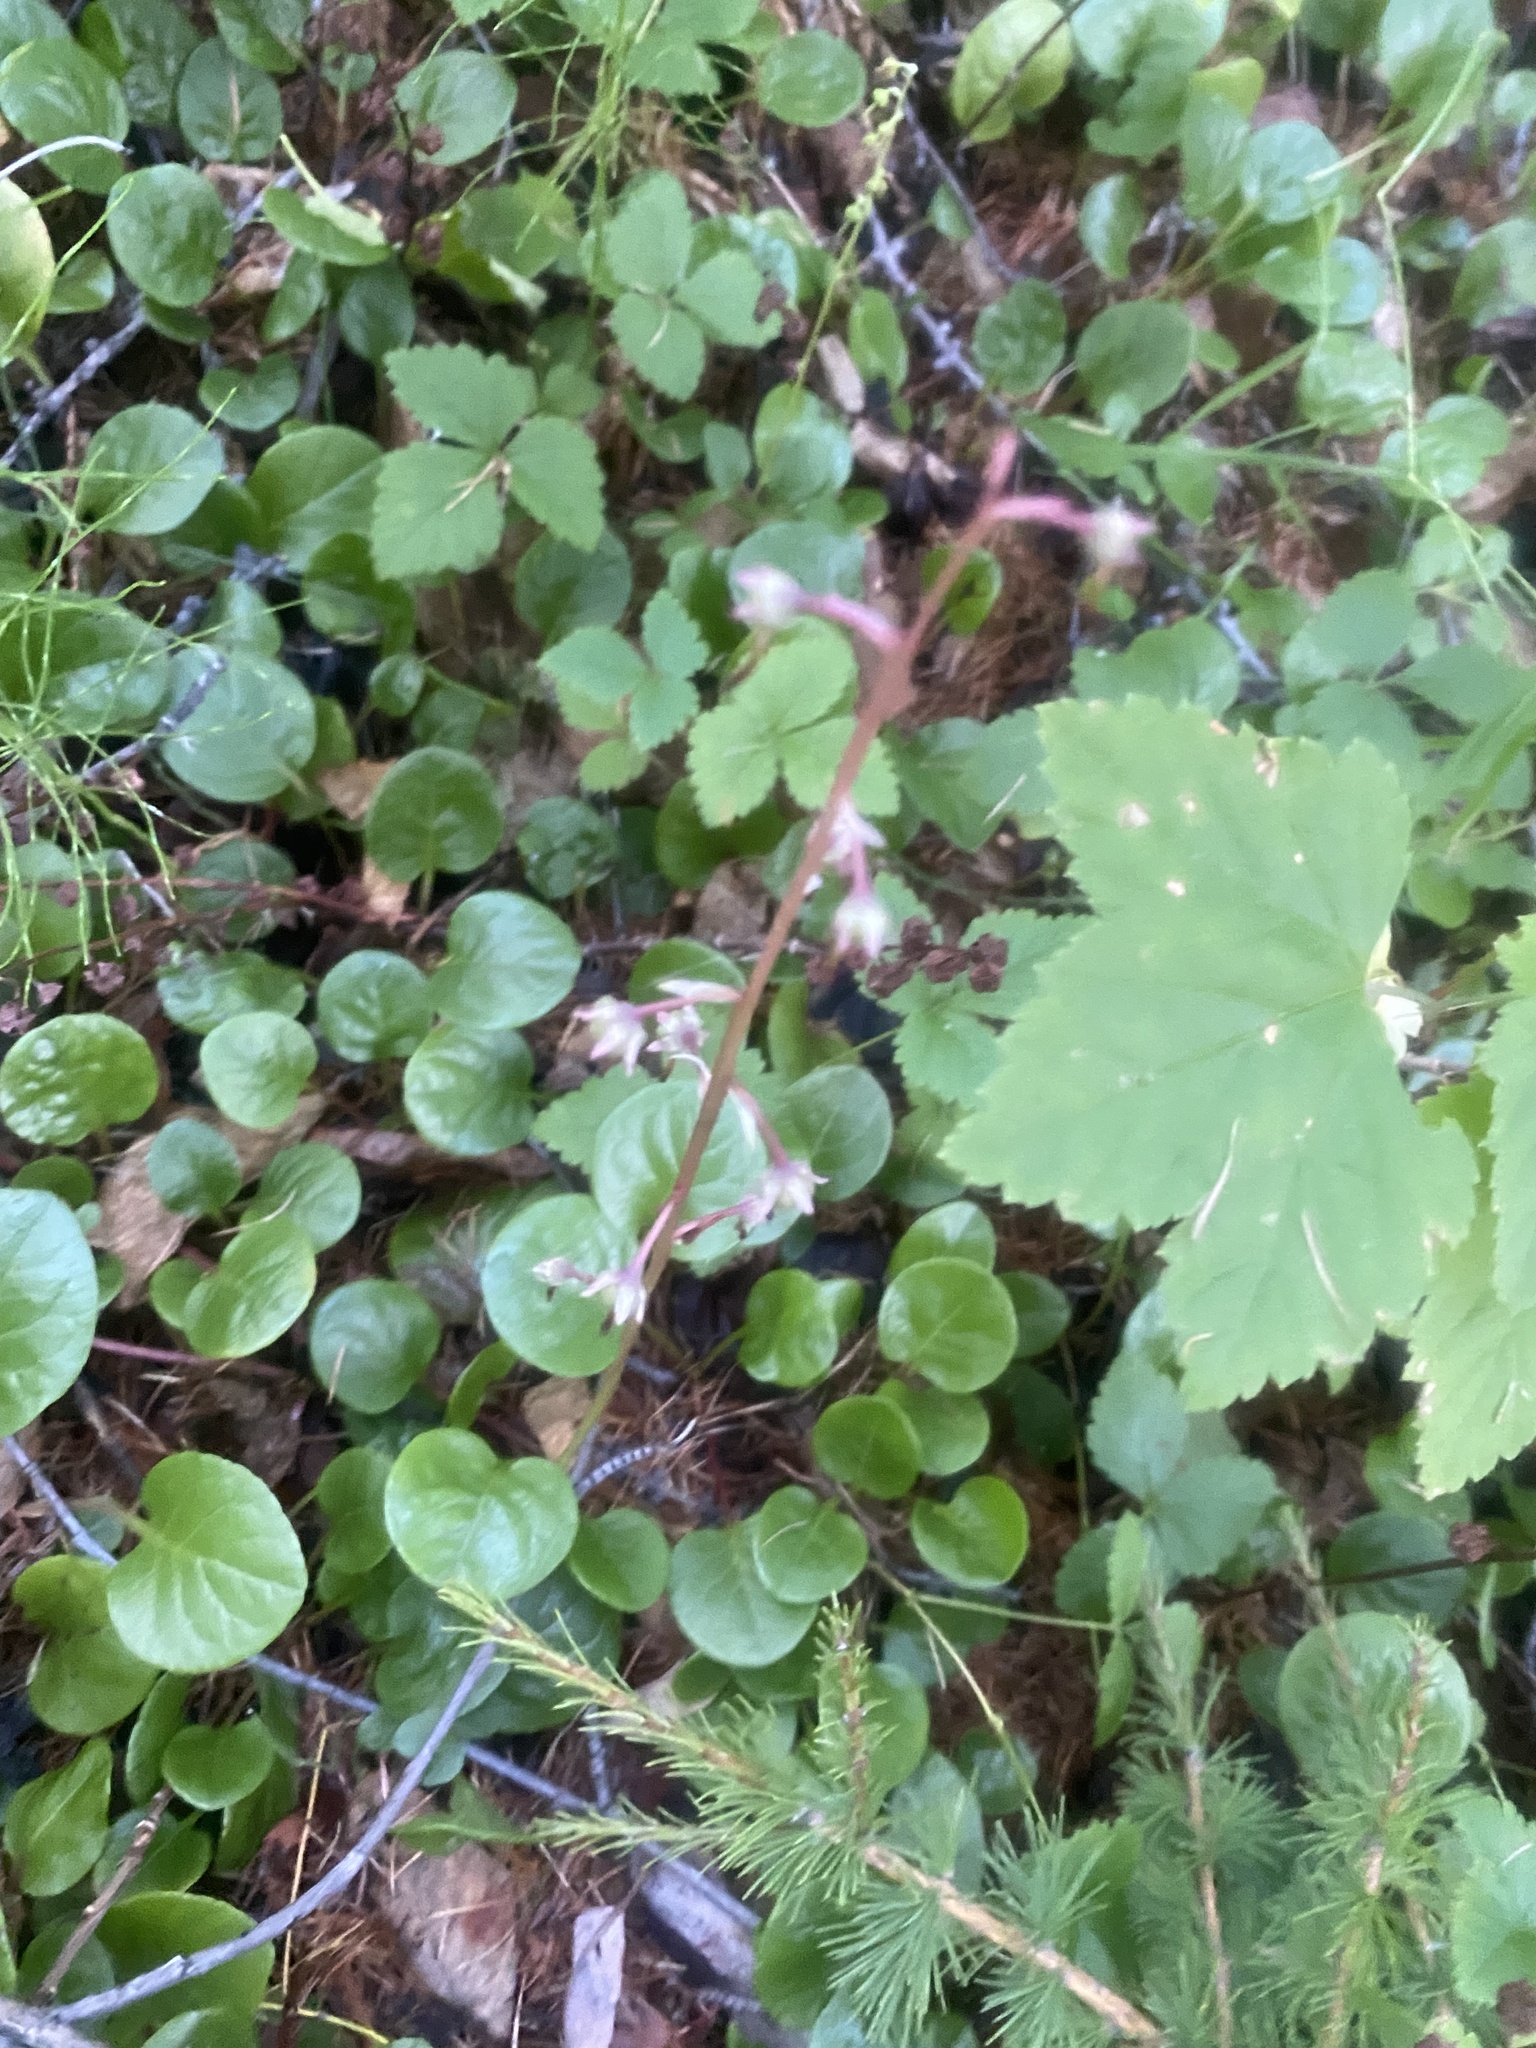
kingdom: Plantae
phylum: Tracheophyta
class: Magnoliopsida
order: Ericales
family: Ericaceae
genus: Pyrola
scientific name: Pyrola asarifolia
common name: Bog wintergreen
